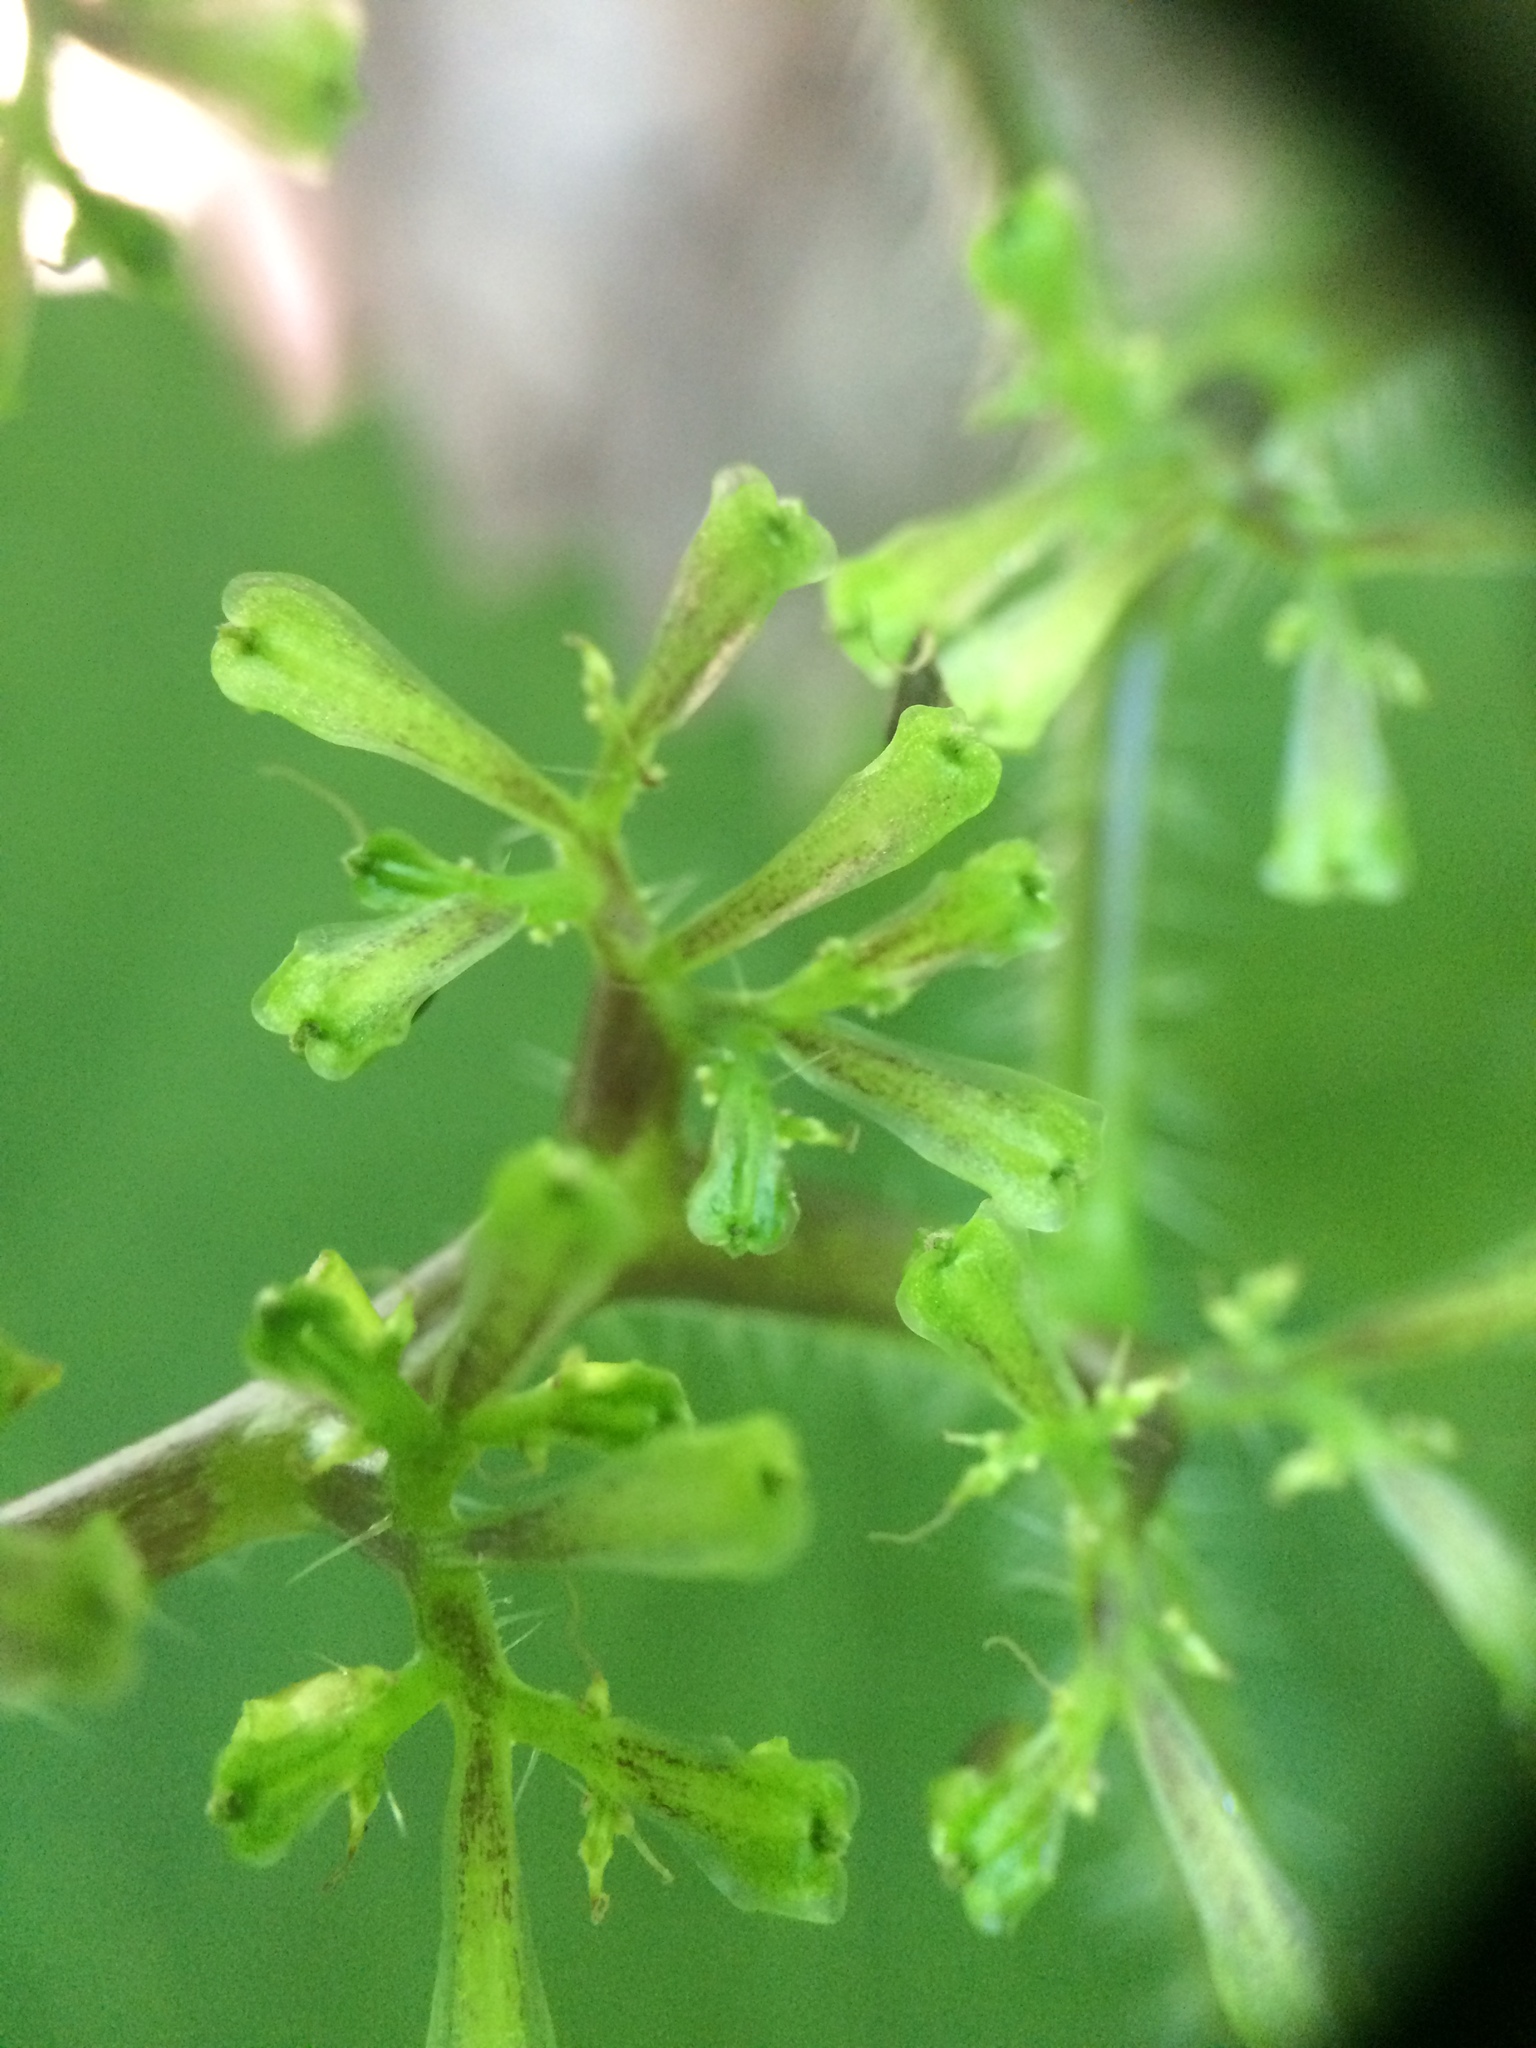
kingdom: Plantae
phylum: Tracheophyta
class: Magnoliopsida
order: Rosales
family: Urticaceae
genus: Laportea
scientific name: Laportea canadensis
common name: Canada nettle
